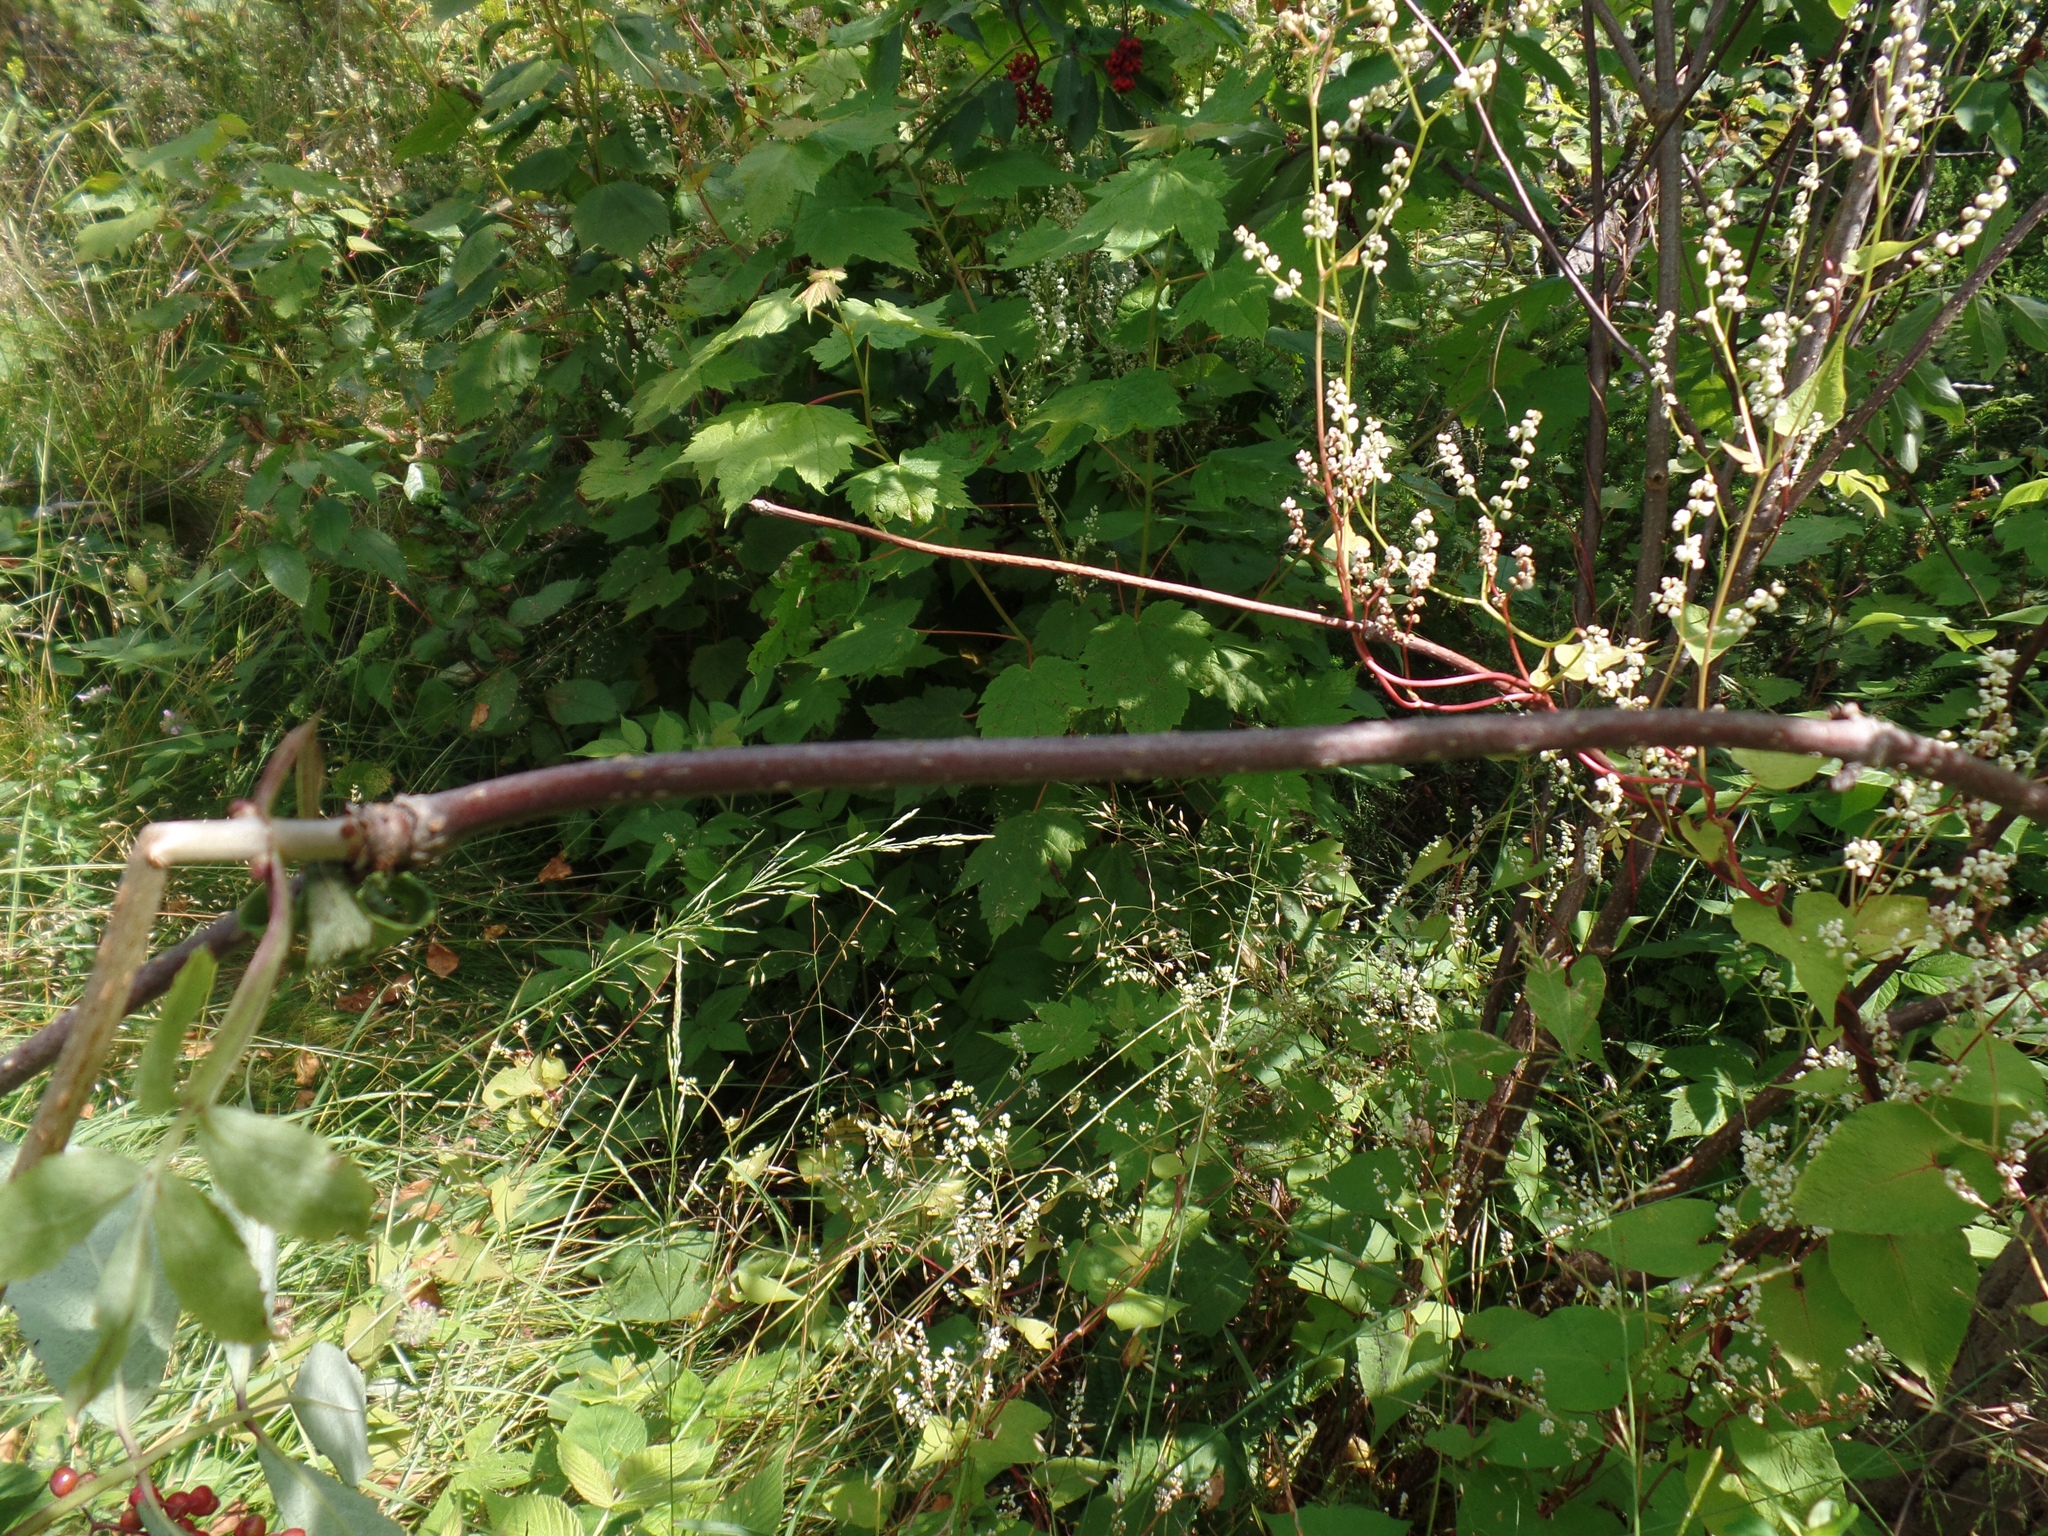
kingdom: Plantae
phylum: Tracheophyta
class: Magnoliopsida
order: Dipsacales
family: Viburnaceae
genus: Sambucus
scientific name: Sambucus racemosa
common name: Red-berried elder
